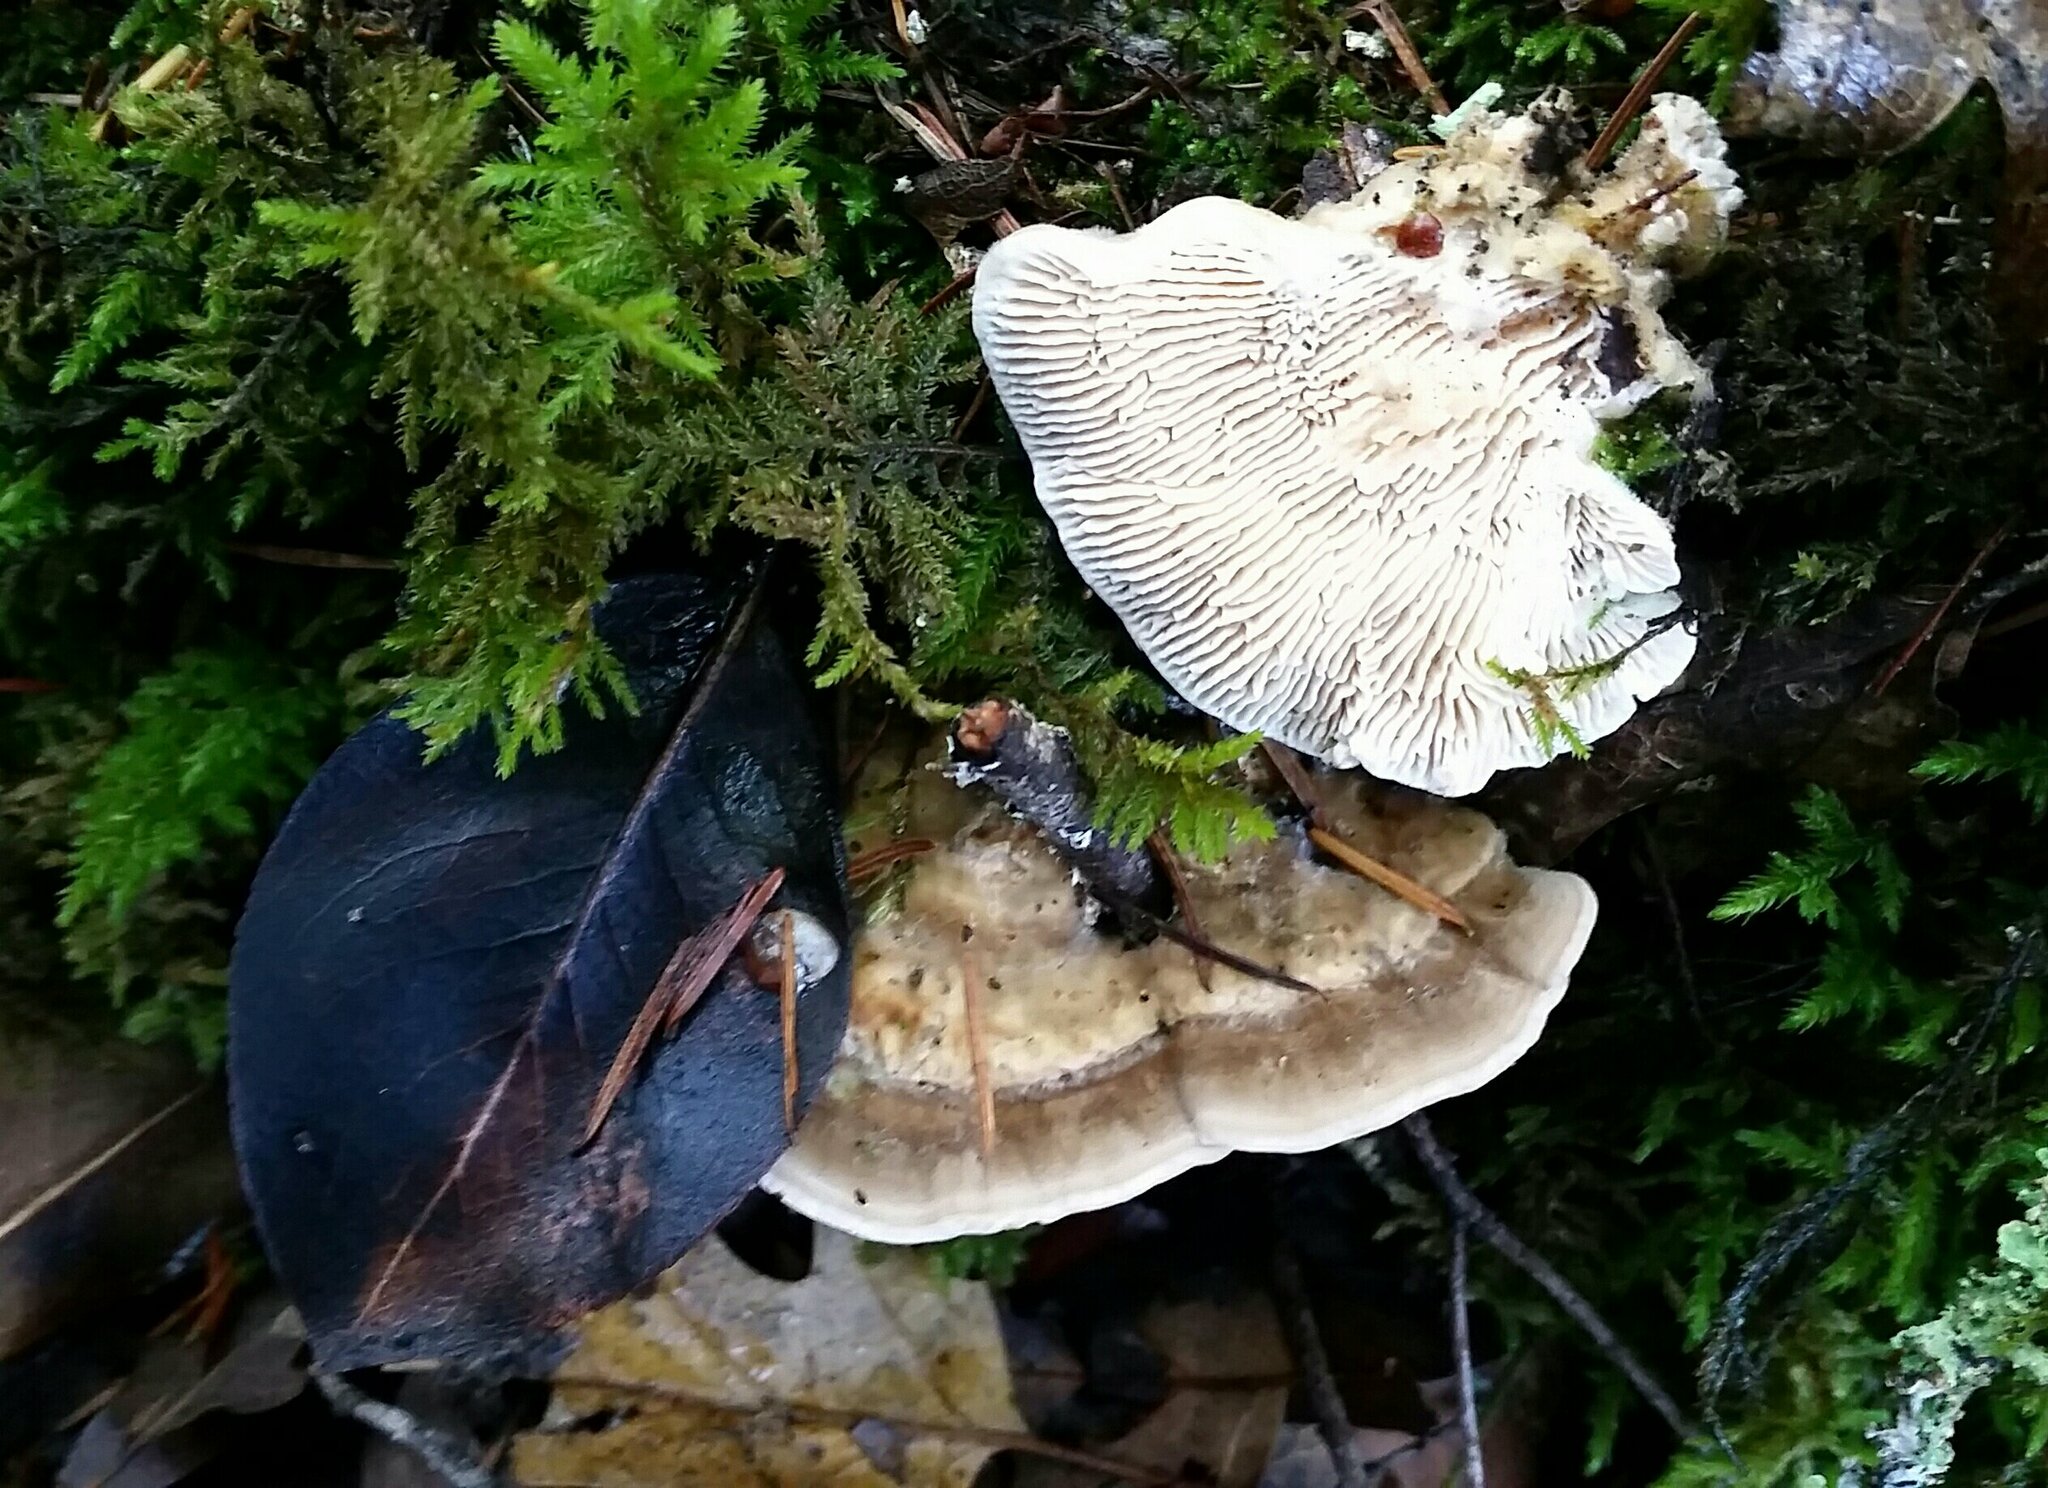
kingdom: Fungi
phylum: Basidiomycota
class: Agaricomycetes
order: Polyporales
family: Polyporaceae
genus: Lenzites
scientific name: Lenzites betulinus
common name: Birch mazegill
